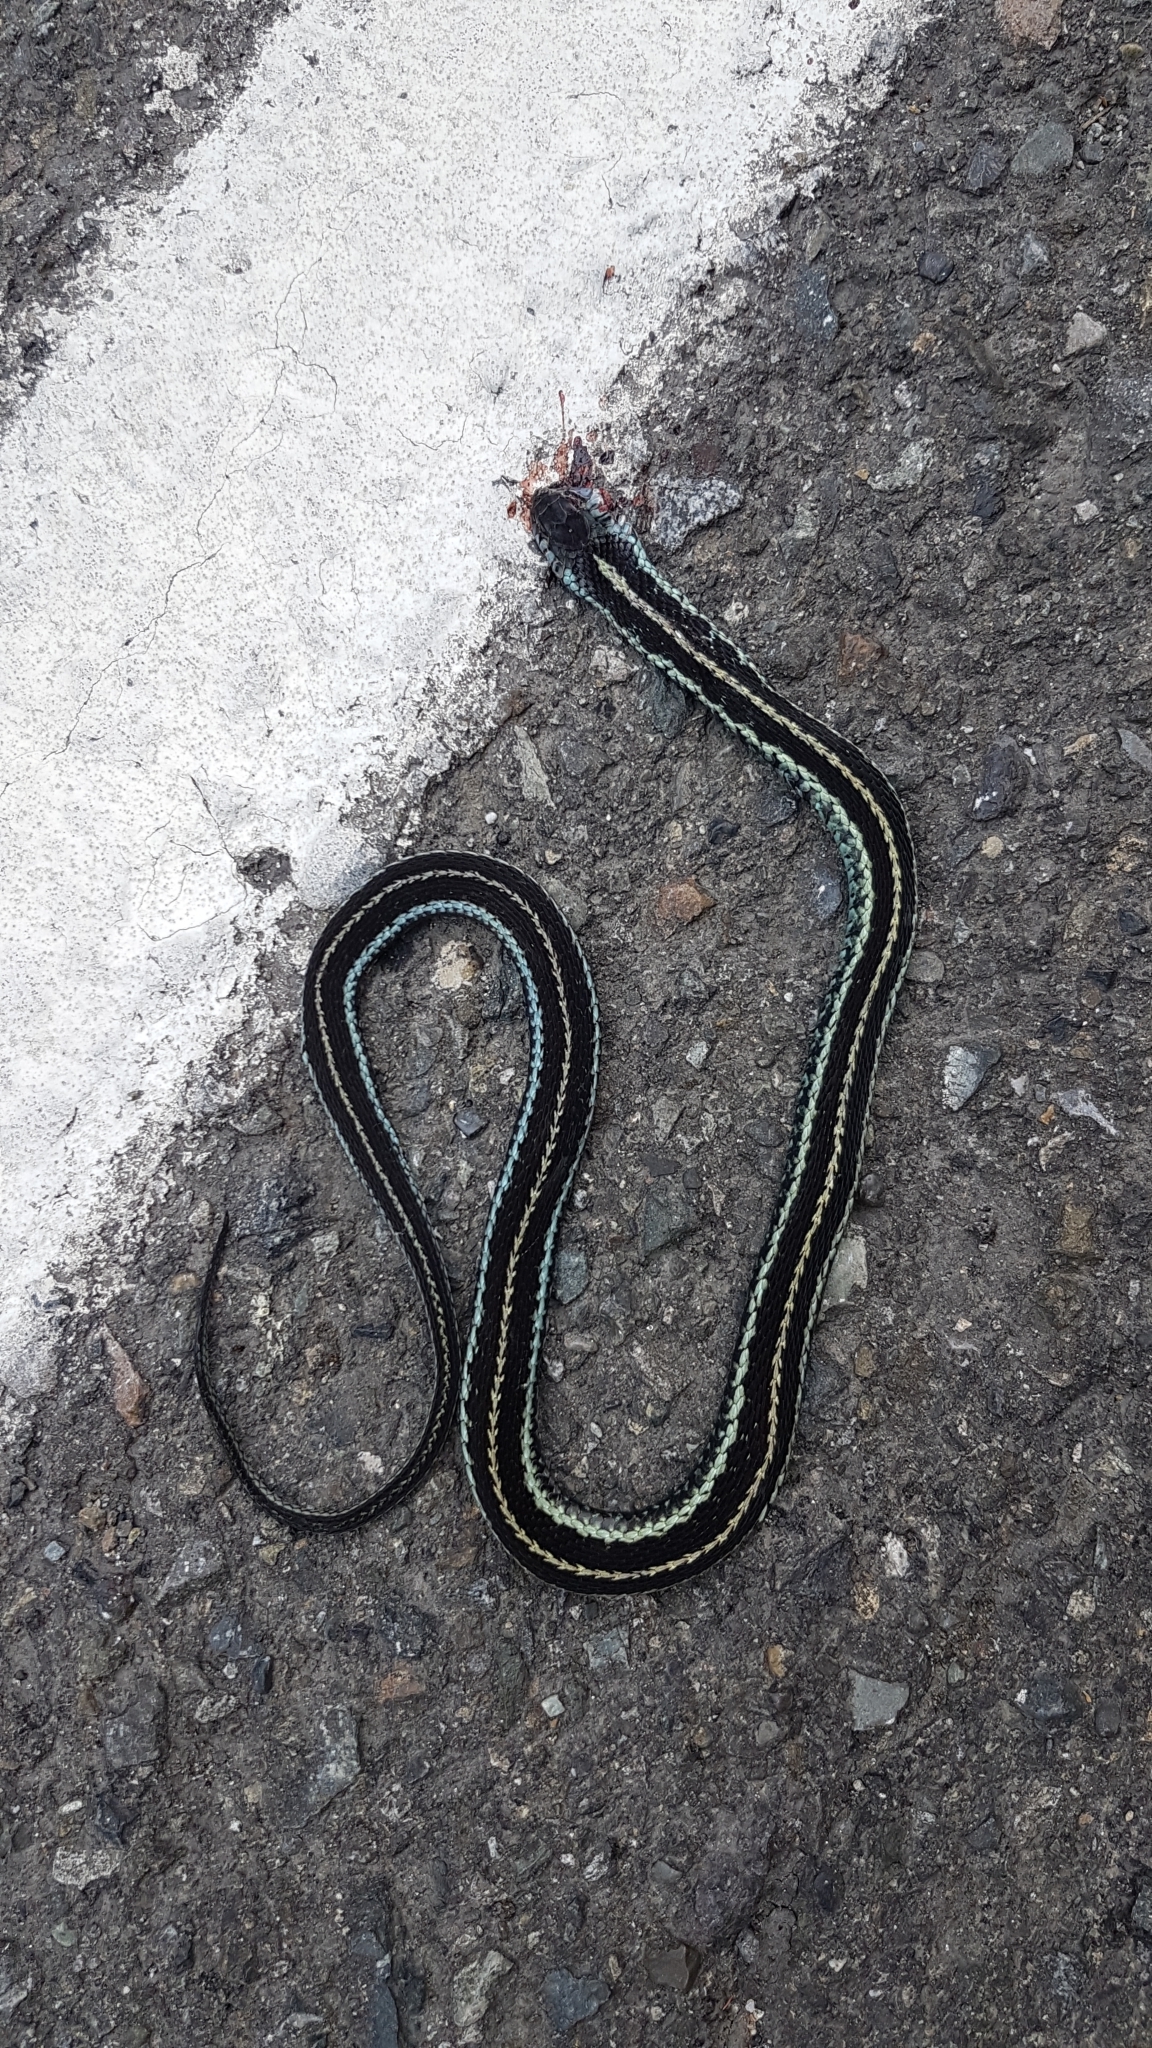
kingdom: Animalia
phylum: Chordata
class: Squamata
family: Colubridae
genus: Thamnophis
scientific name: Thamnophis ordinoides
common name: Northwestern garter snake
